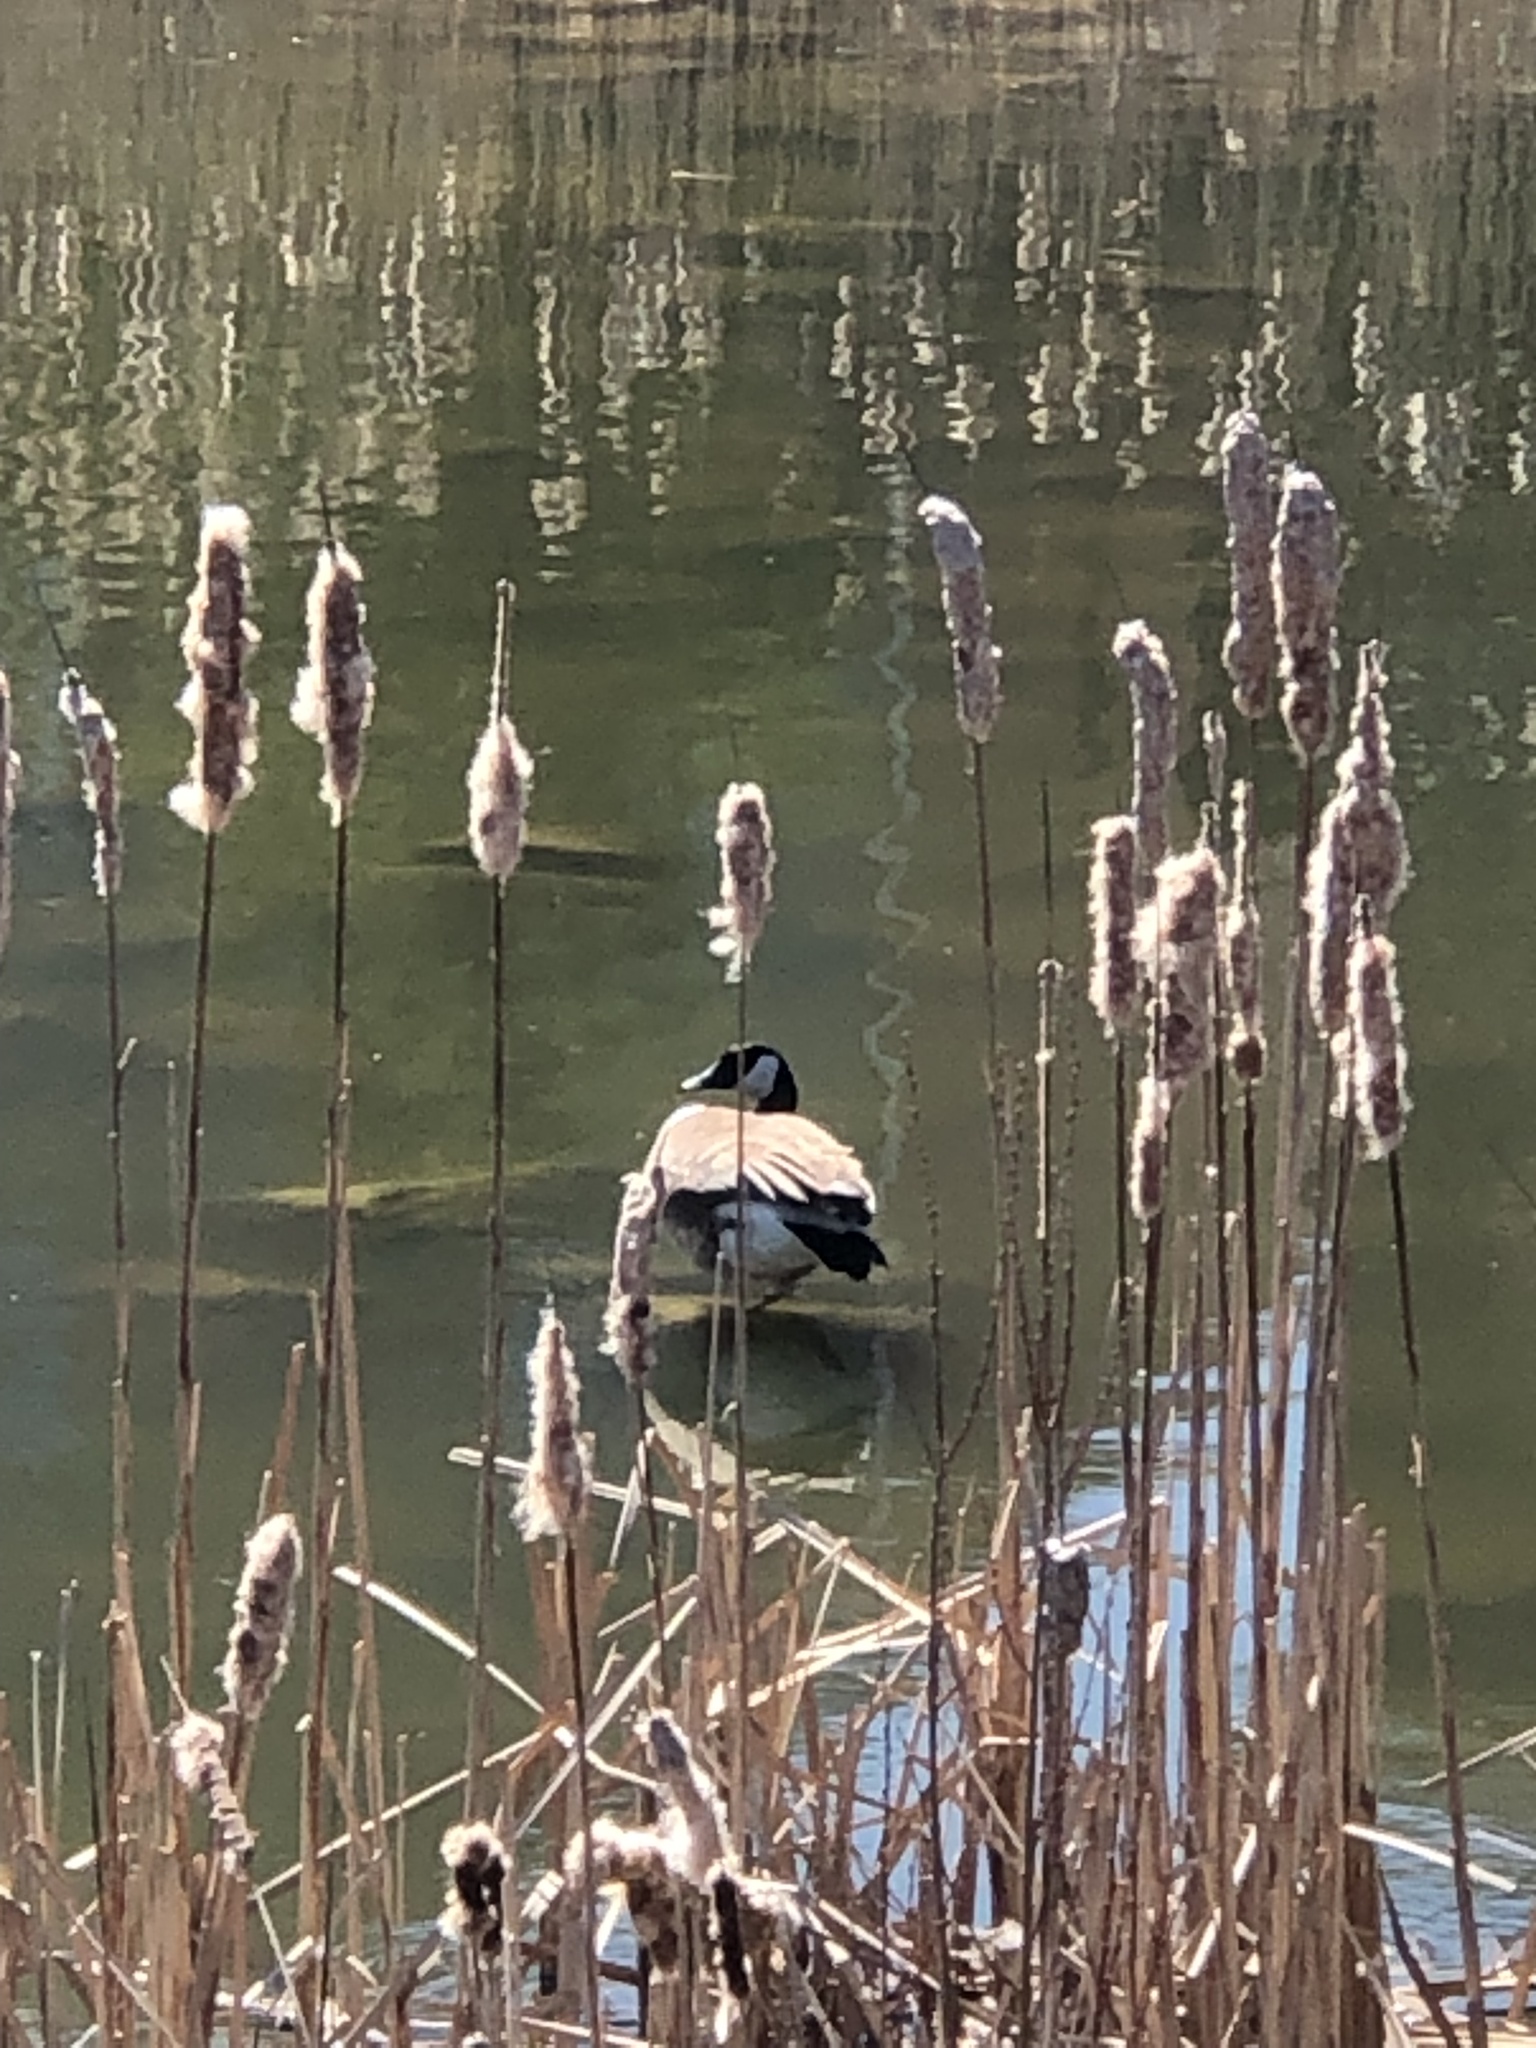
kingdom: Animalia
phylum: Chordata
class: Aves
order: Anseriformes
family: Anatidae
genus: Branta
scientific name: Branta canadensis
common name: Canada goose
